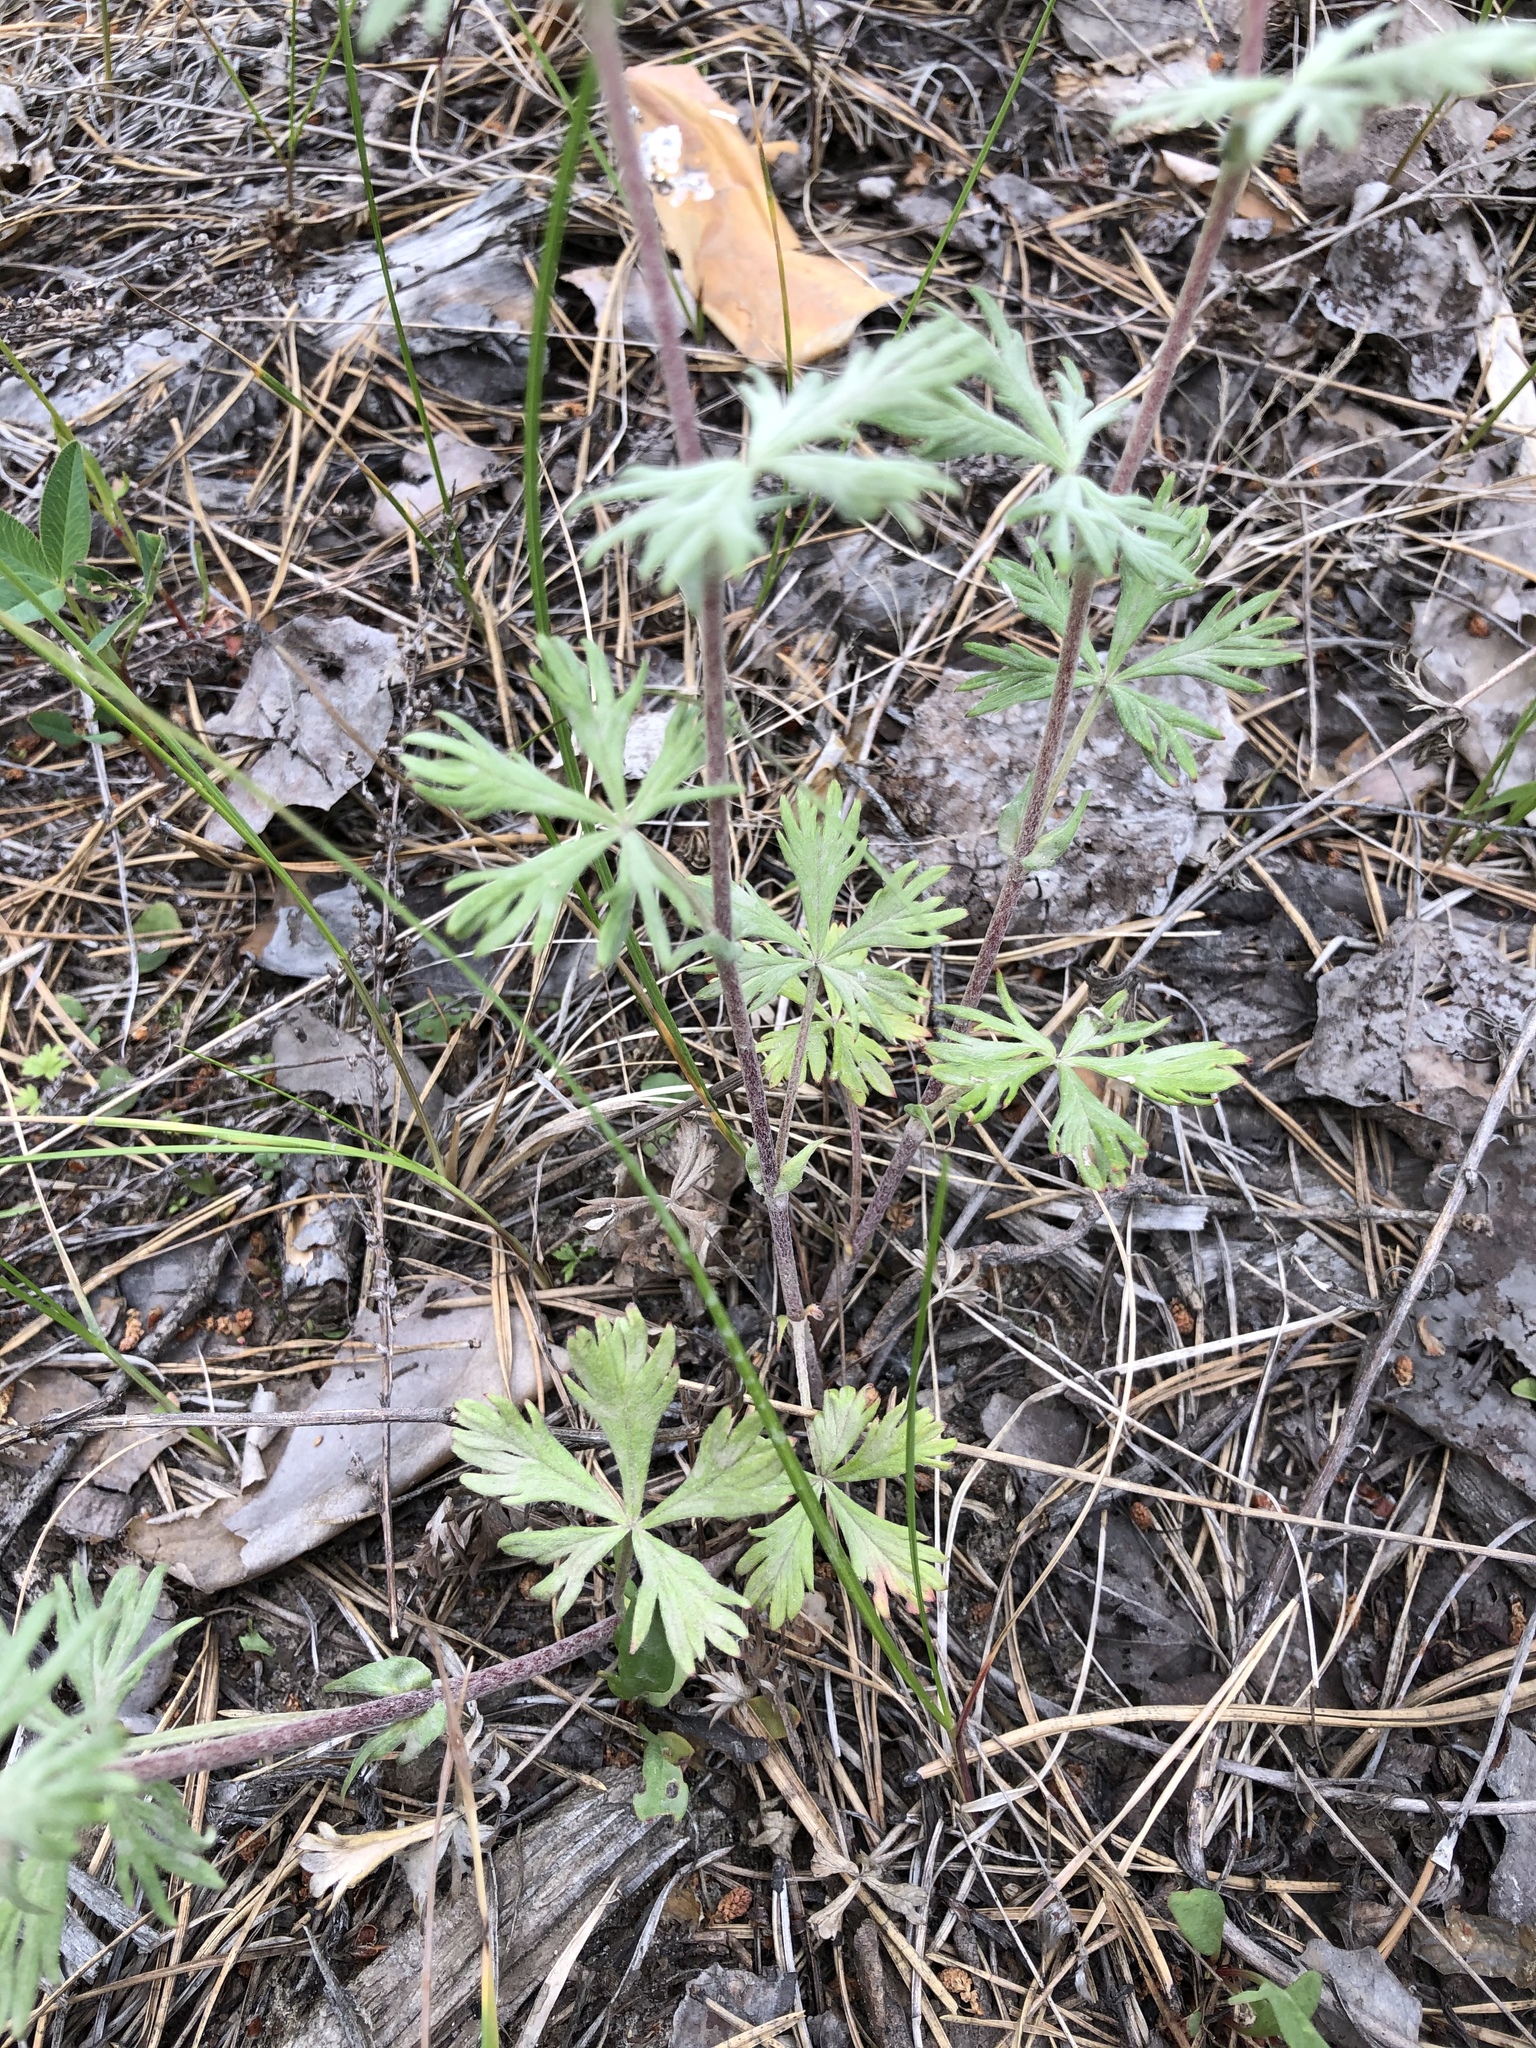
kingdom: Plantae
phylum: Tracheophyta
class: Magnoliopsida
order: Rosales
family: Rosaceae
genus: Potentilla
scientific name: Potentilla argentea
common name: Hoary cinquefoil
